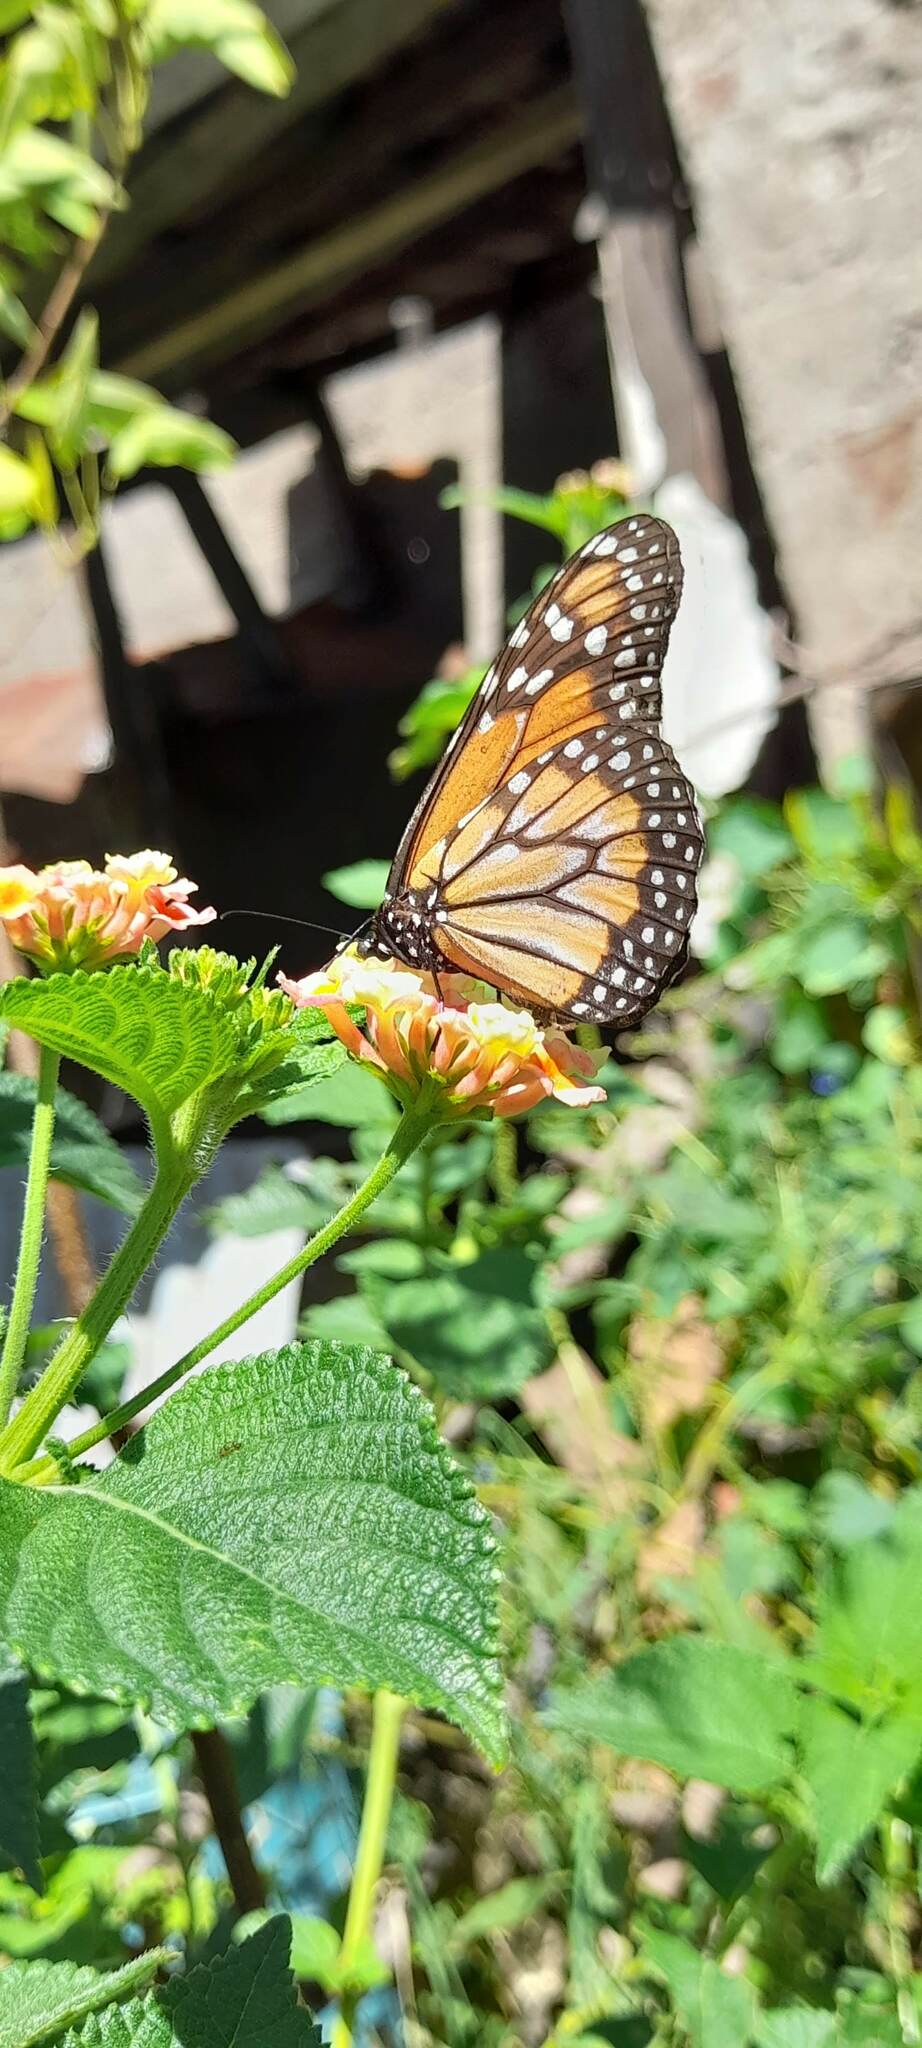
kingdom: Animalia
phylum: Arthropoda
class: Insecta
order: Lepidoptera
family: Nymphalidae
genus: Danaus
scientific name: Danaus erippus
